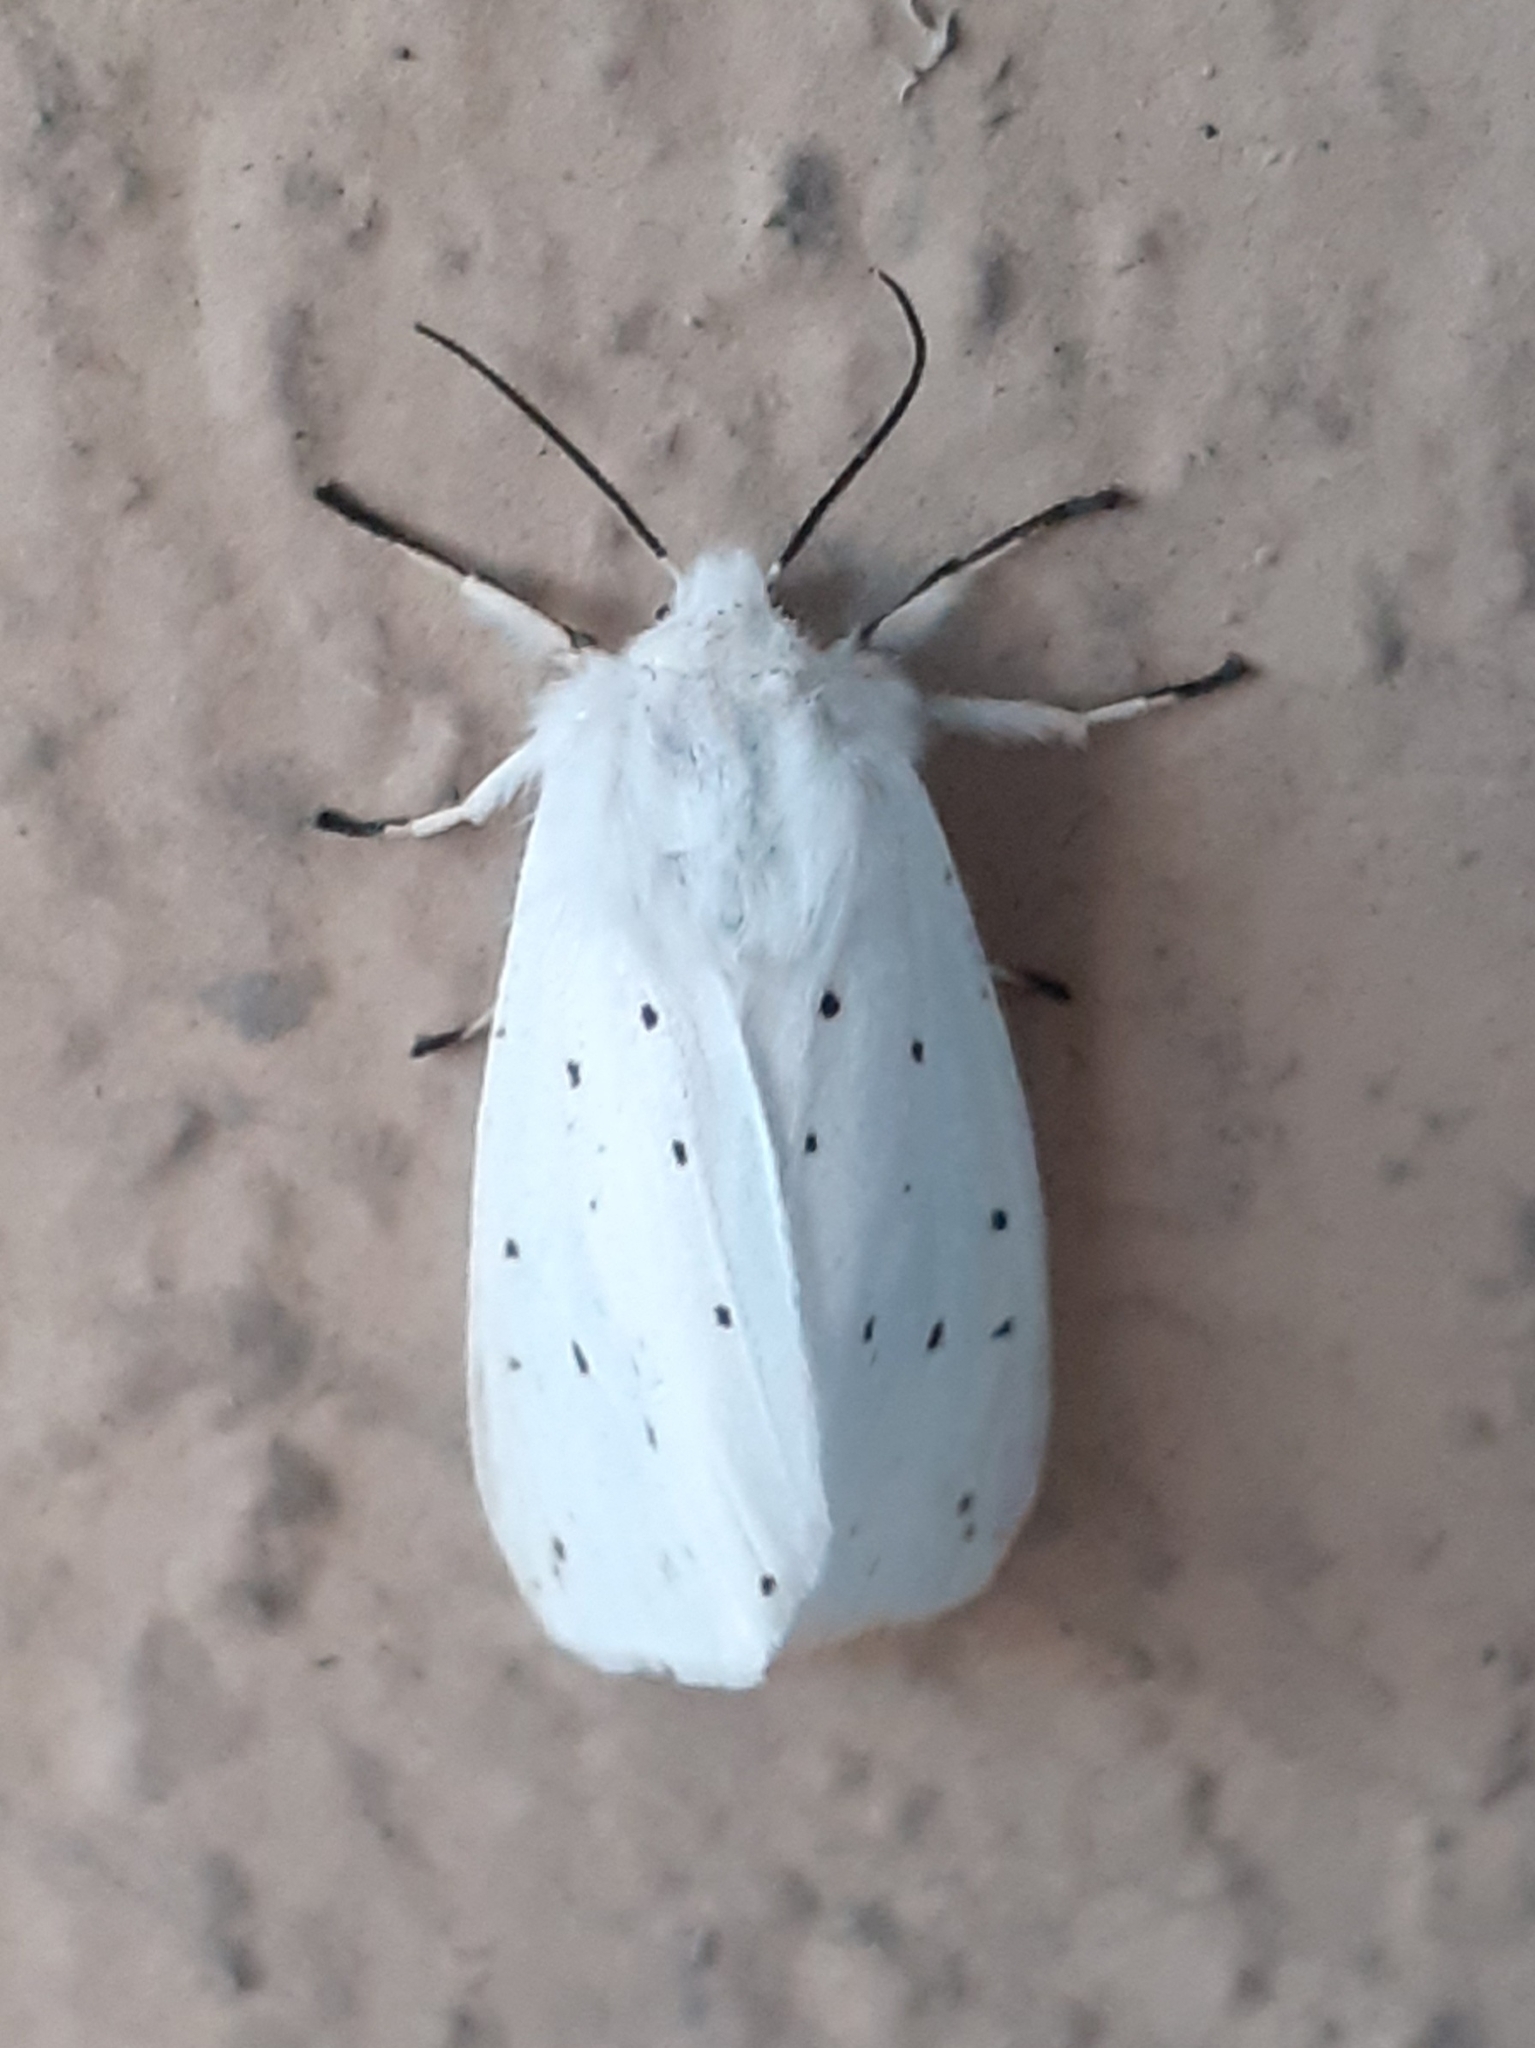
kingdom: Animalia
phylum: Arthropoda
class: Insecta
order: Lepidoptera
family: Erebidae
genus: Spilosoma
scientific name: Spilosoma lubricipeda
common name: White ermine
